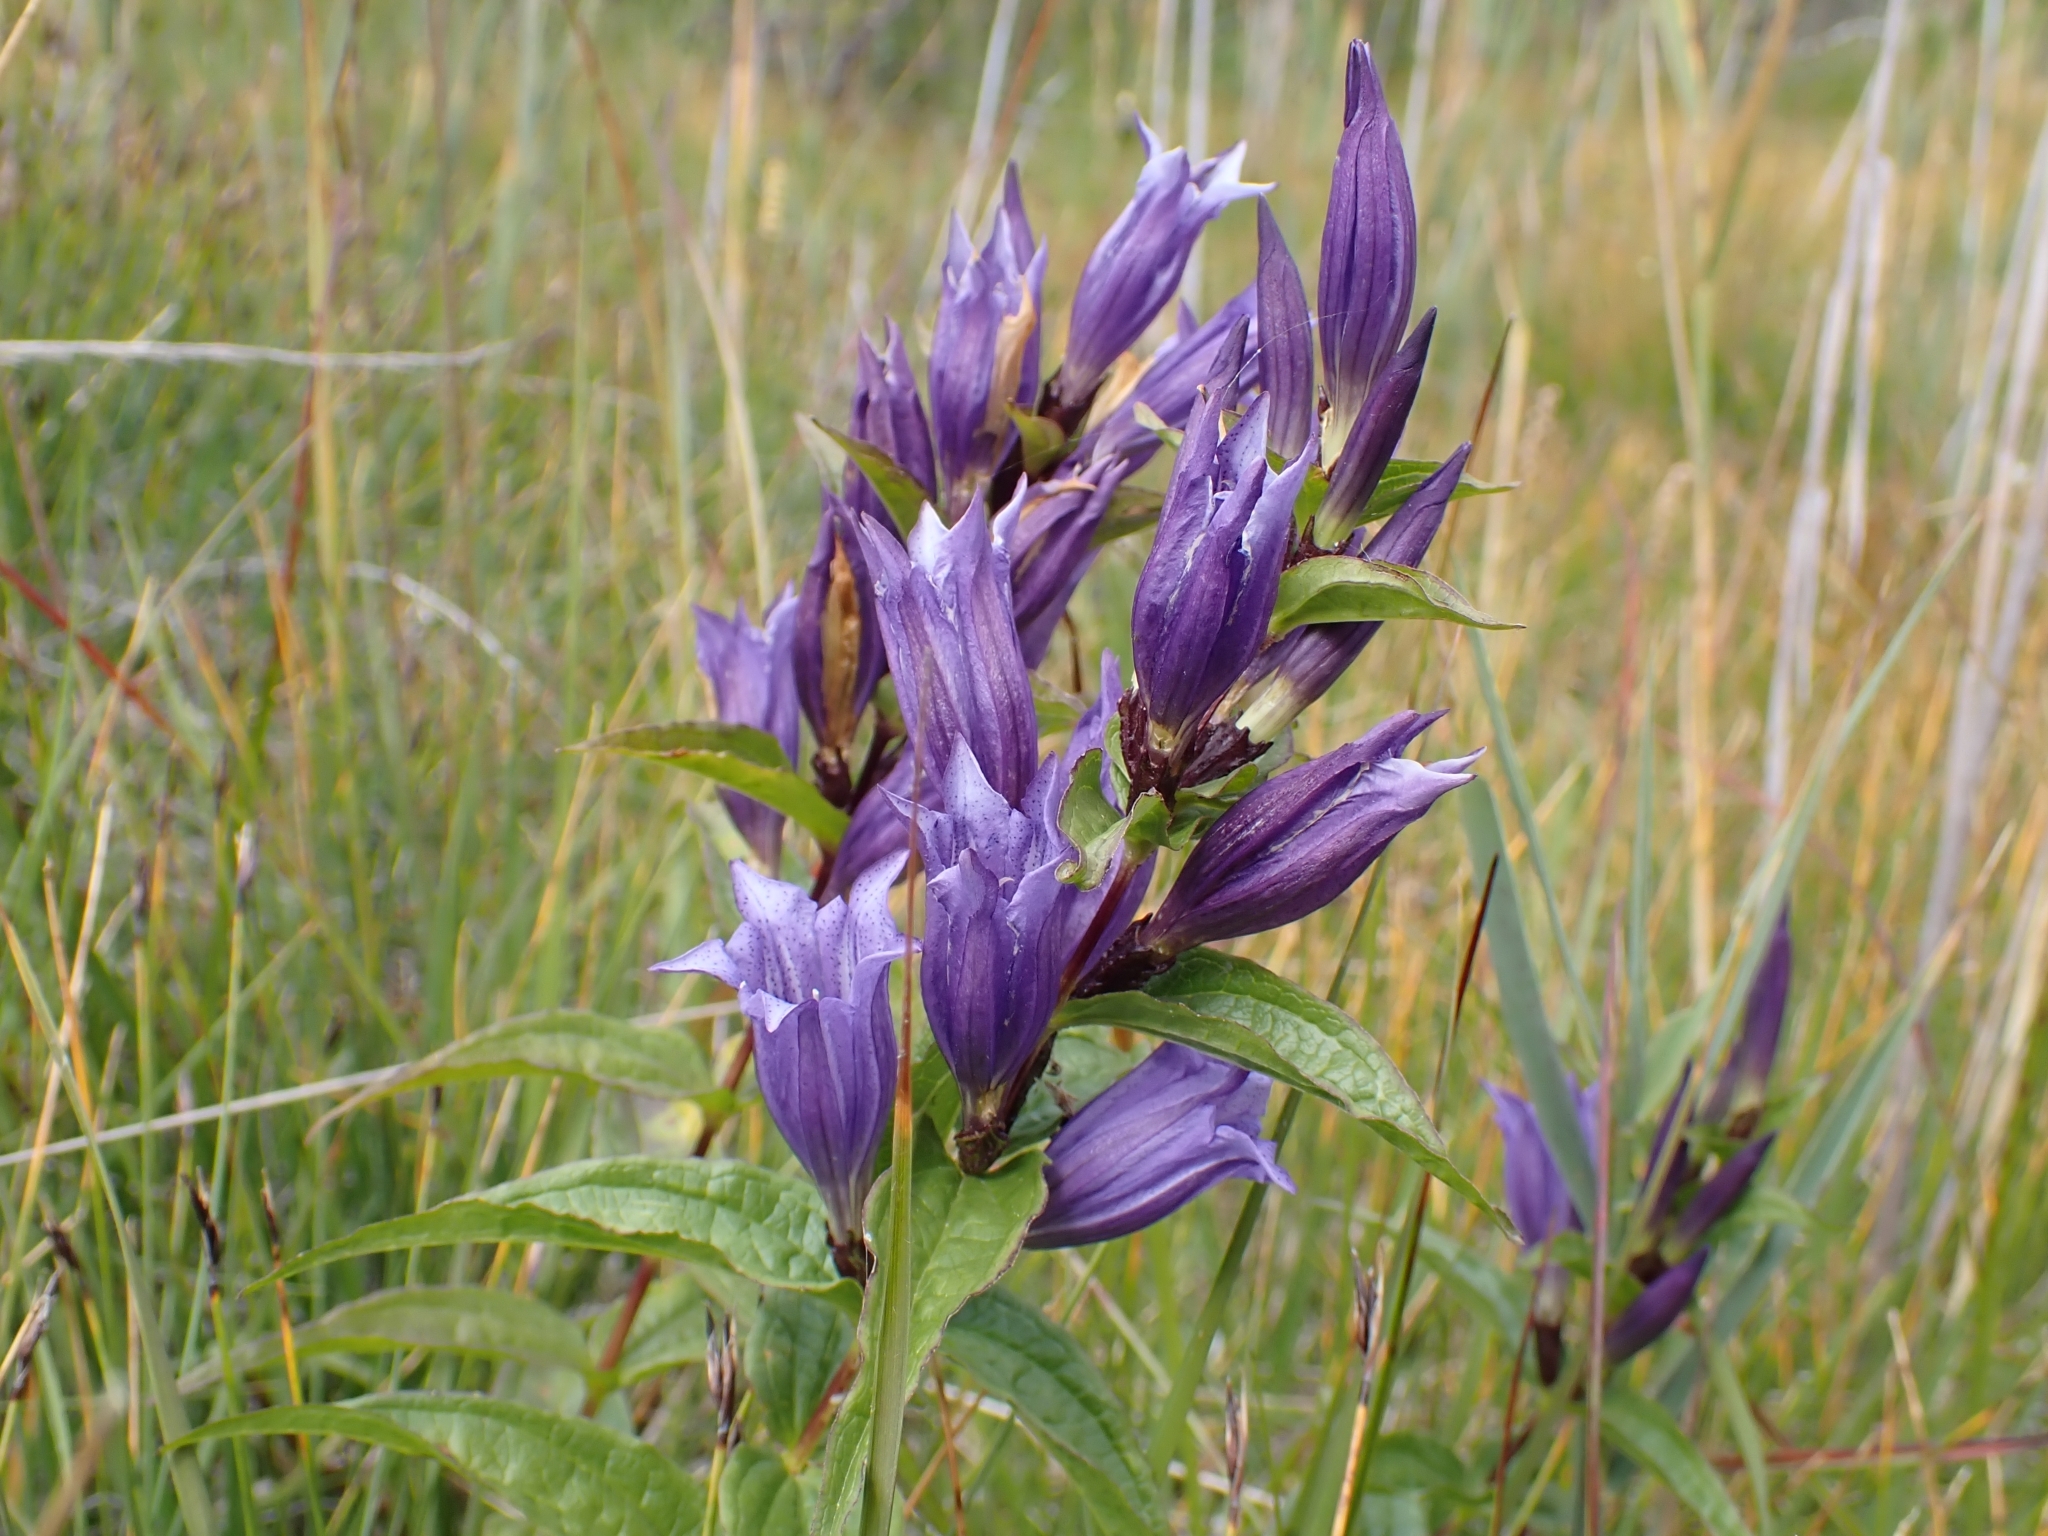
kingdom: Plantae
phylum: Tracheophyta
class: Magnoliopsida
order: Gentianales
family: Gentianaceae
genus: Gentiana
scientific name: Gentiana asclepiadea
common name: Willow gentian
